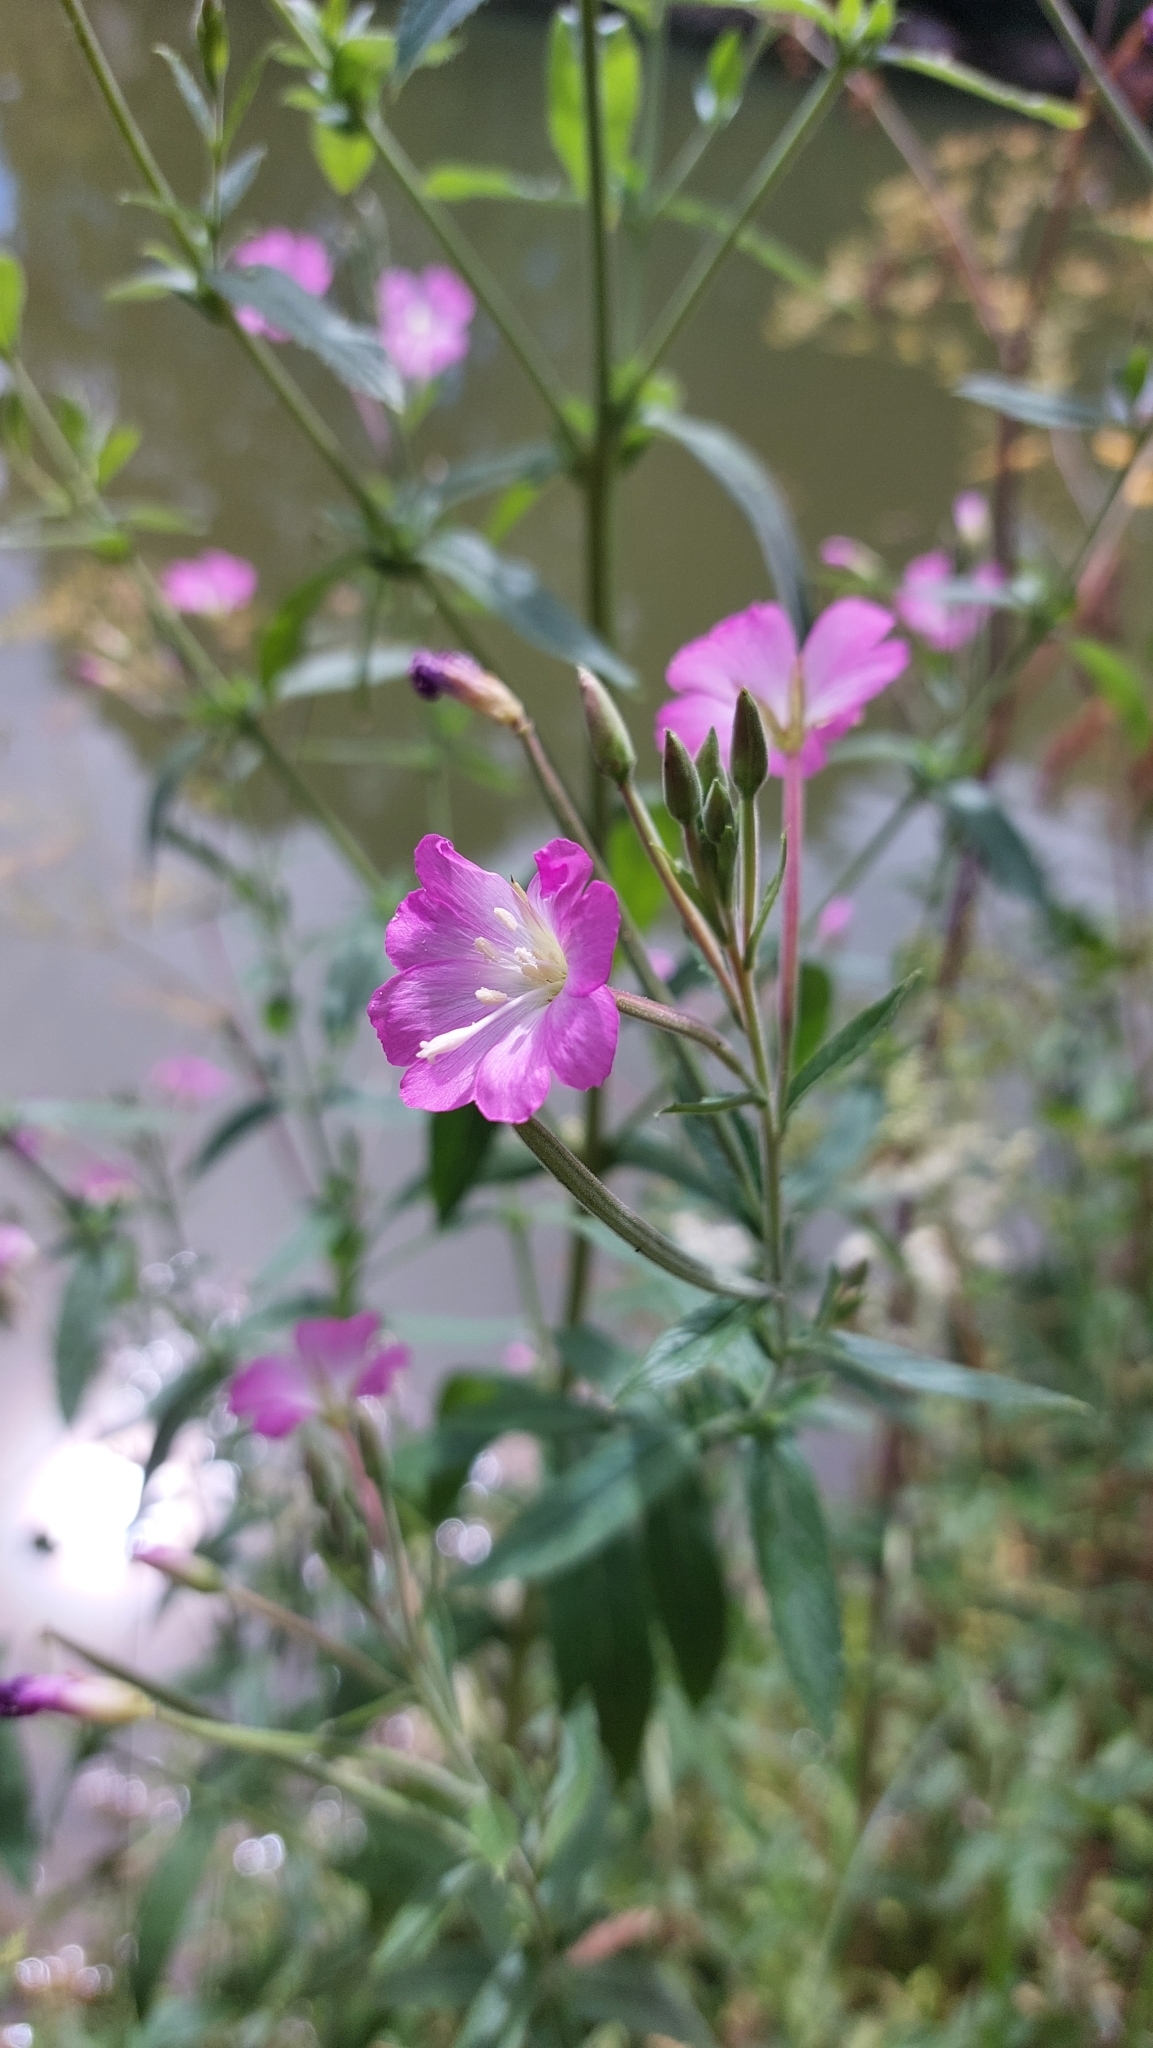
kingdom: Plantae
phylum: Tracheophyta
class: Magnoliopsida
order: Myrtales
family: Onagraceae
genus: Epilobium
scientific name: Epilobium hirsutum
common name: Great willowherb
